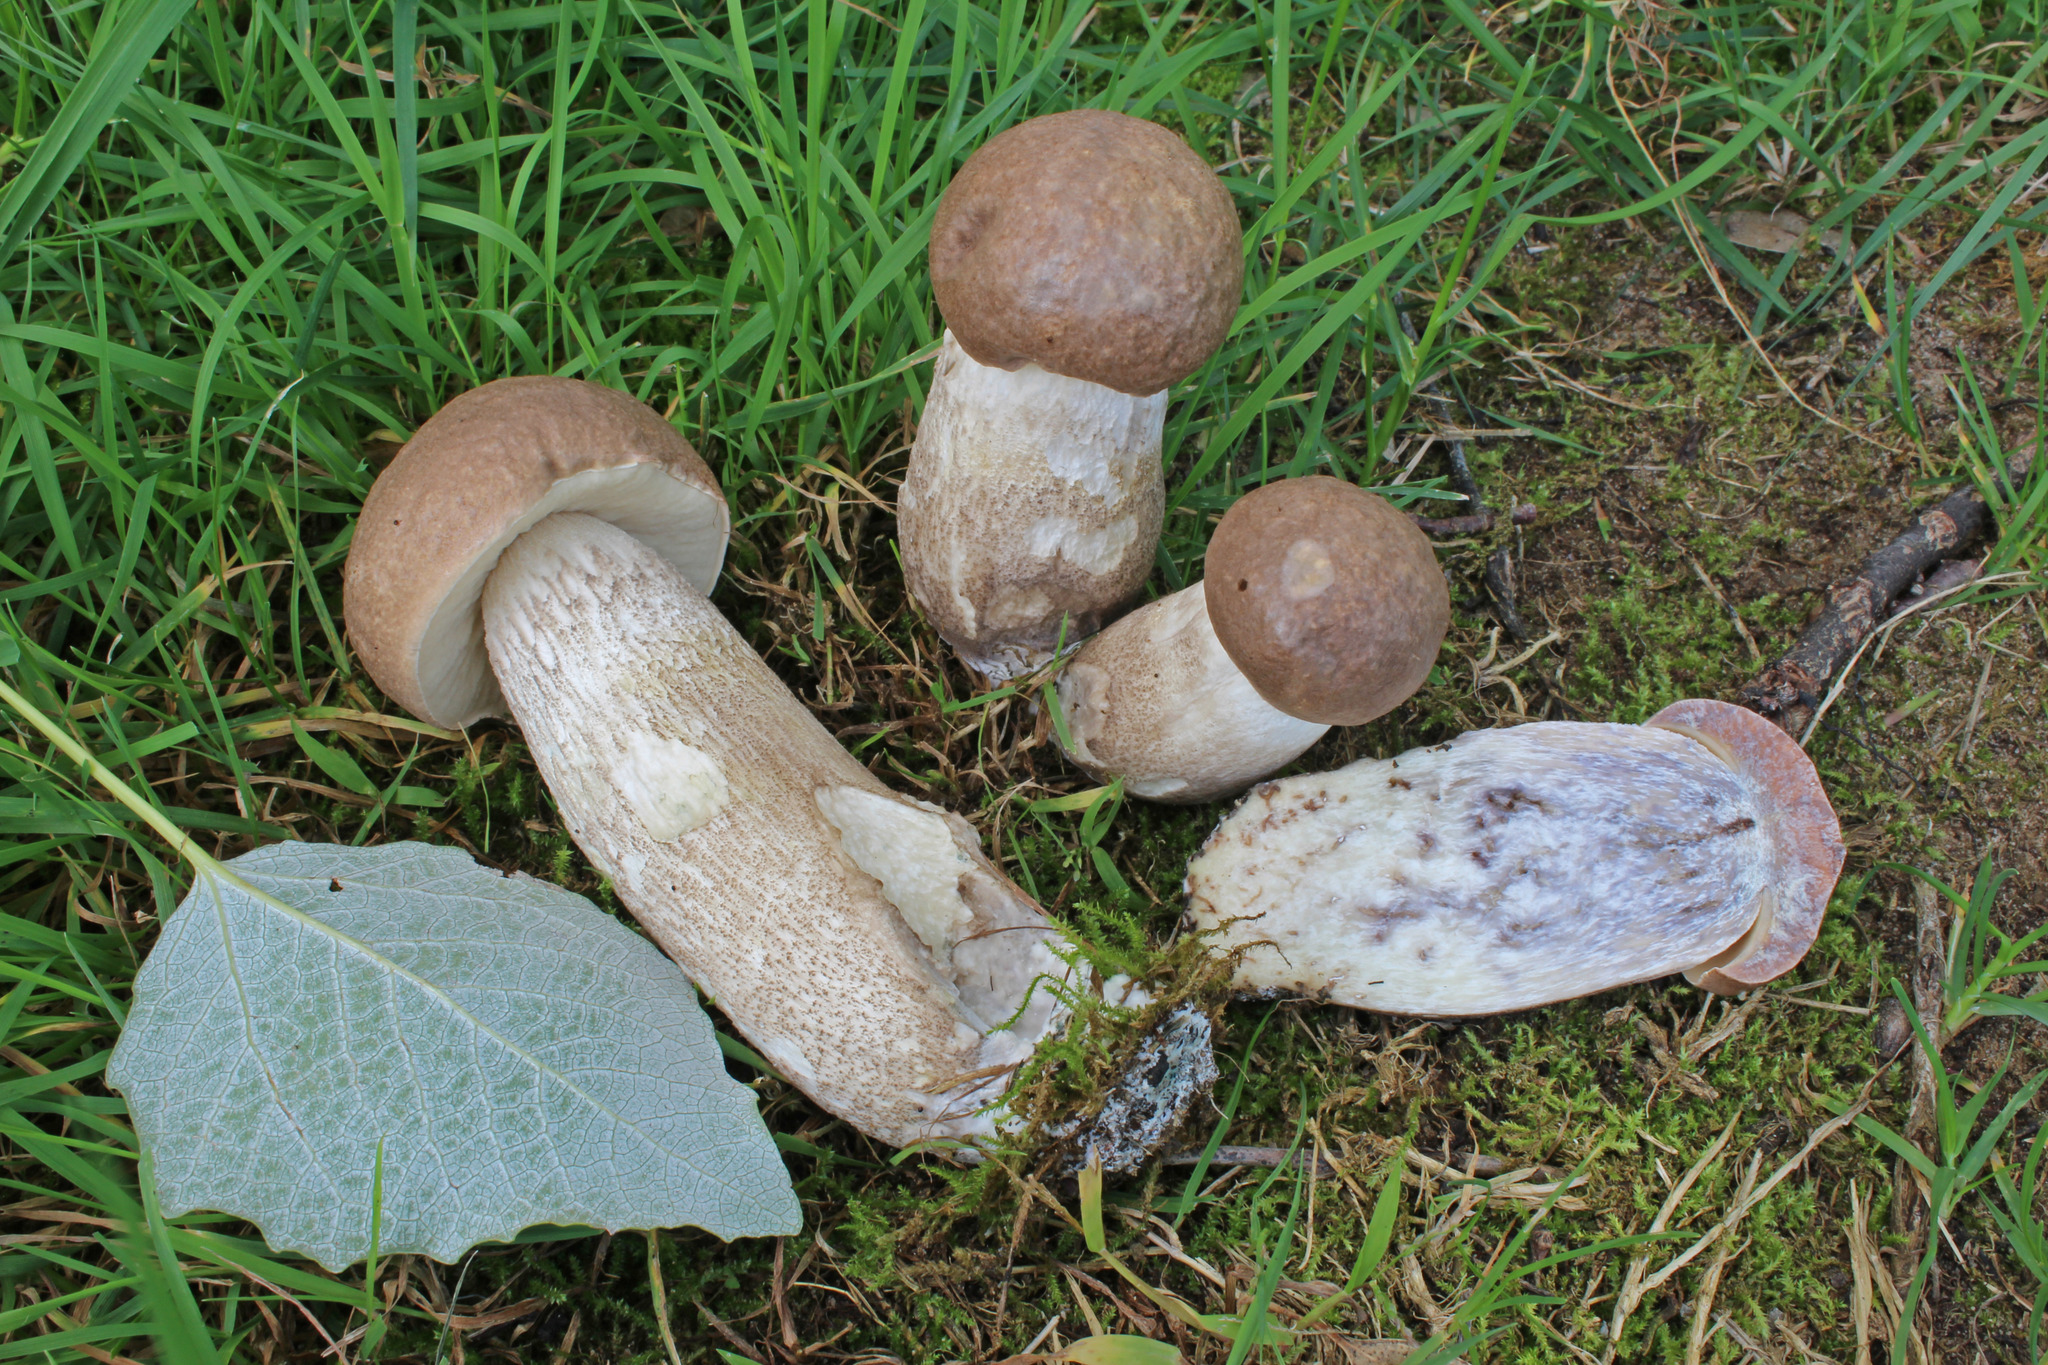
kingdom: Fungi
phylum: Basidiomycota
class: Agaricomycetes
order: Boletales
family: Boletaceae
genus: Leccinum
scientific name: Leccinum duriusculum
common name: Slate bolete
